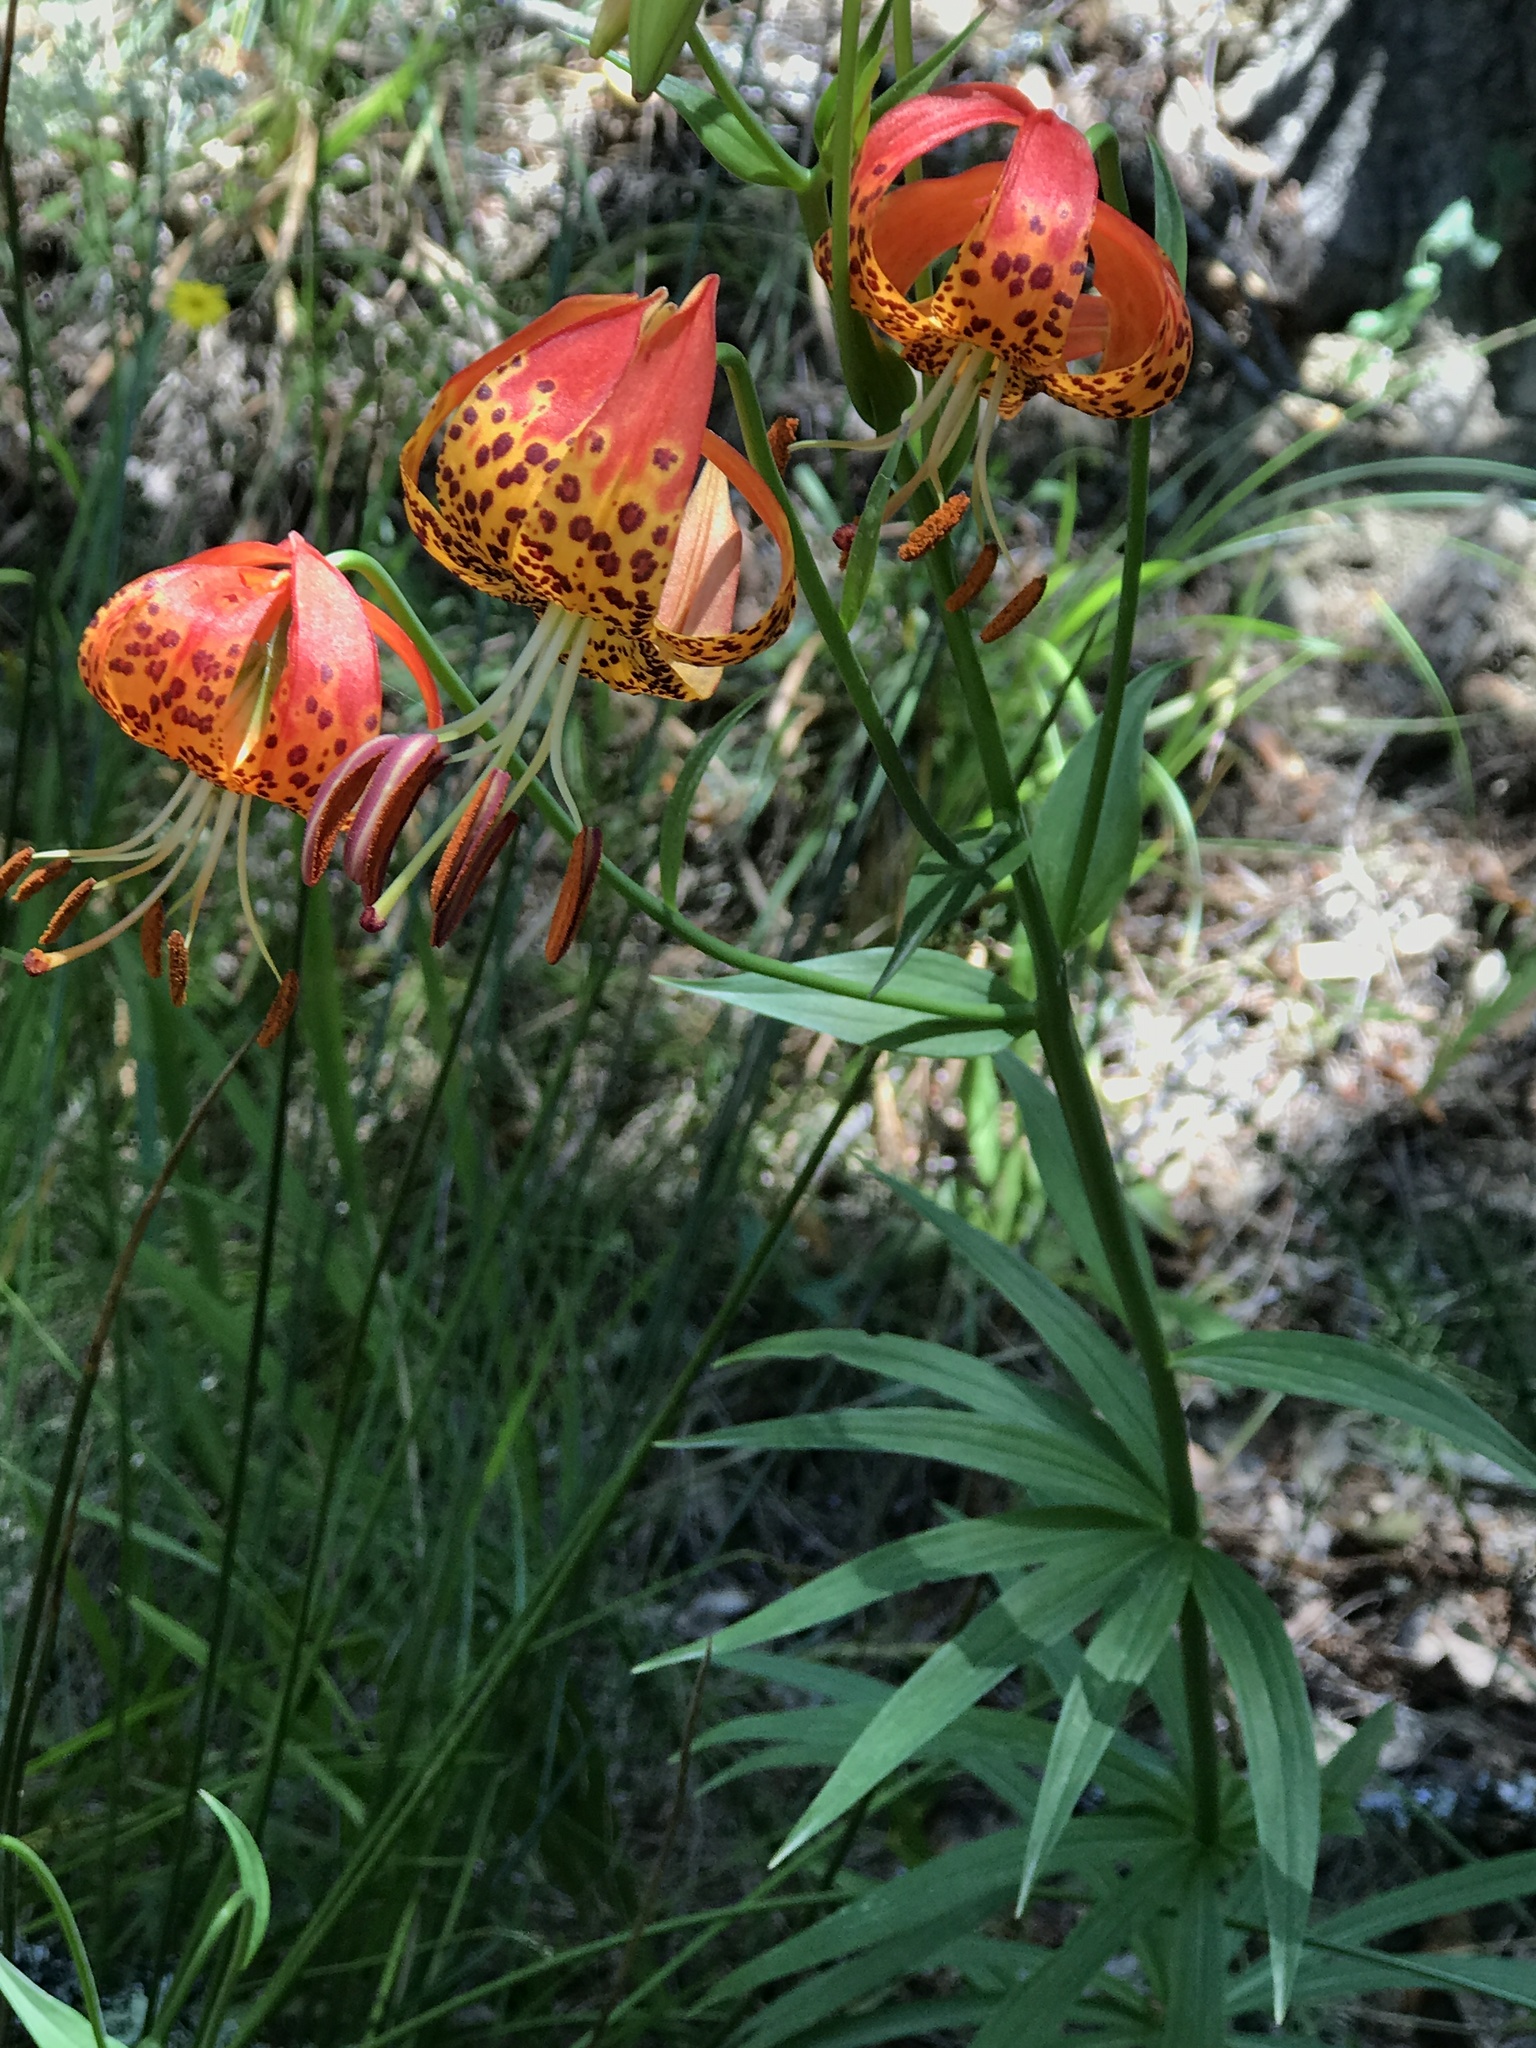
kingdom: Plantae
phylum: Tracheophyta
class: Liliopsida
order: Liliales
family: Liliaceae
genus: Lilium
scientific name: Lilium pardalinum
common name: Panther lily
